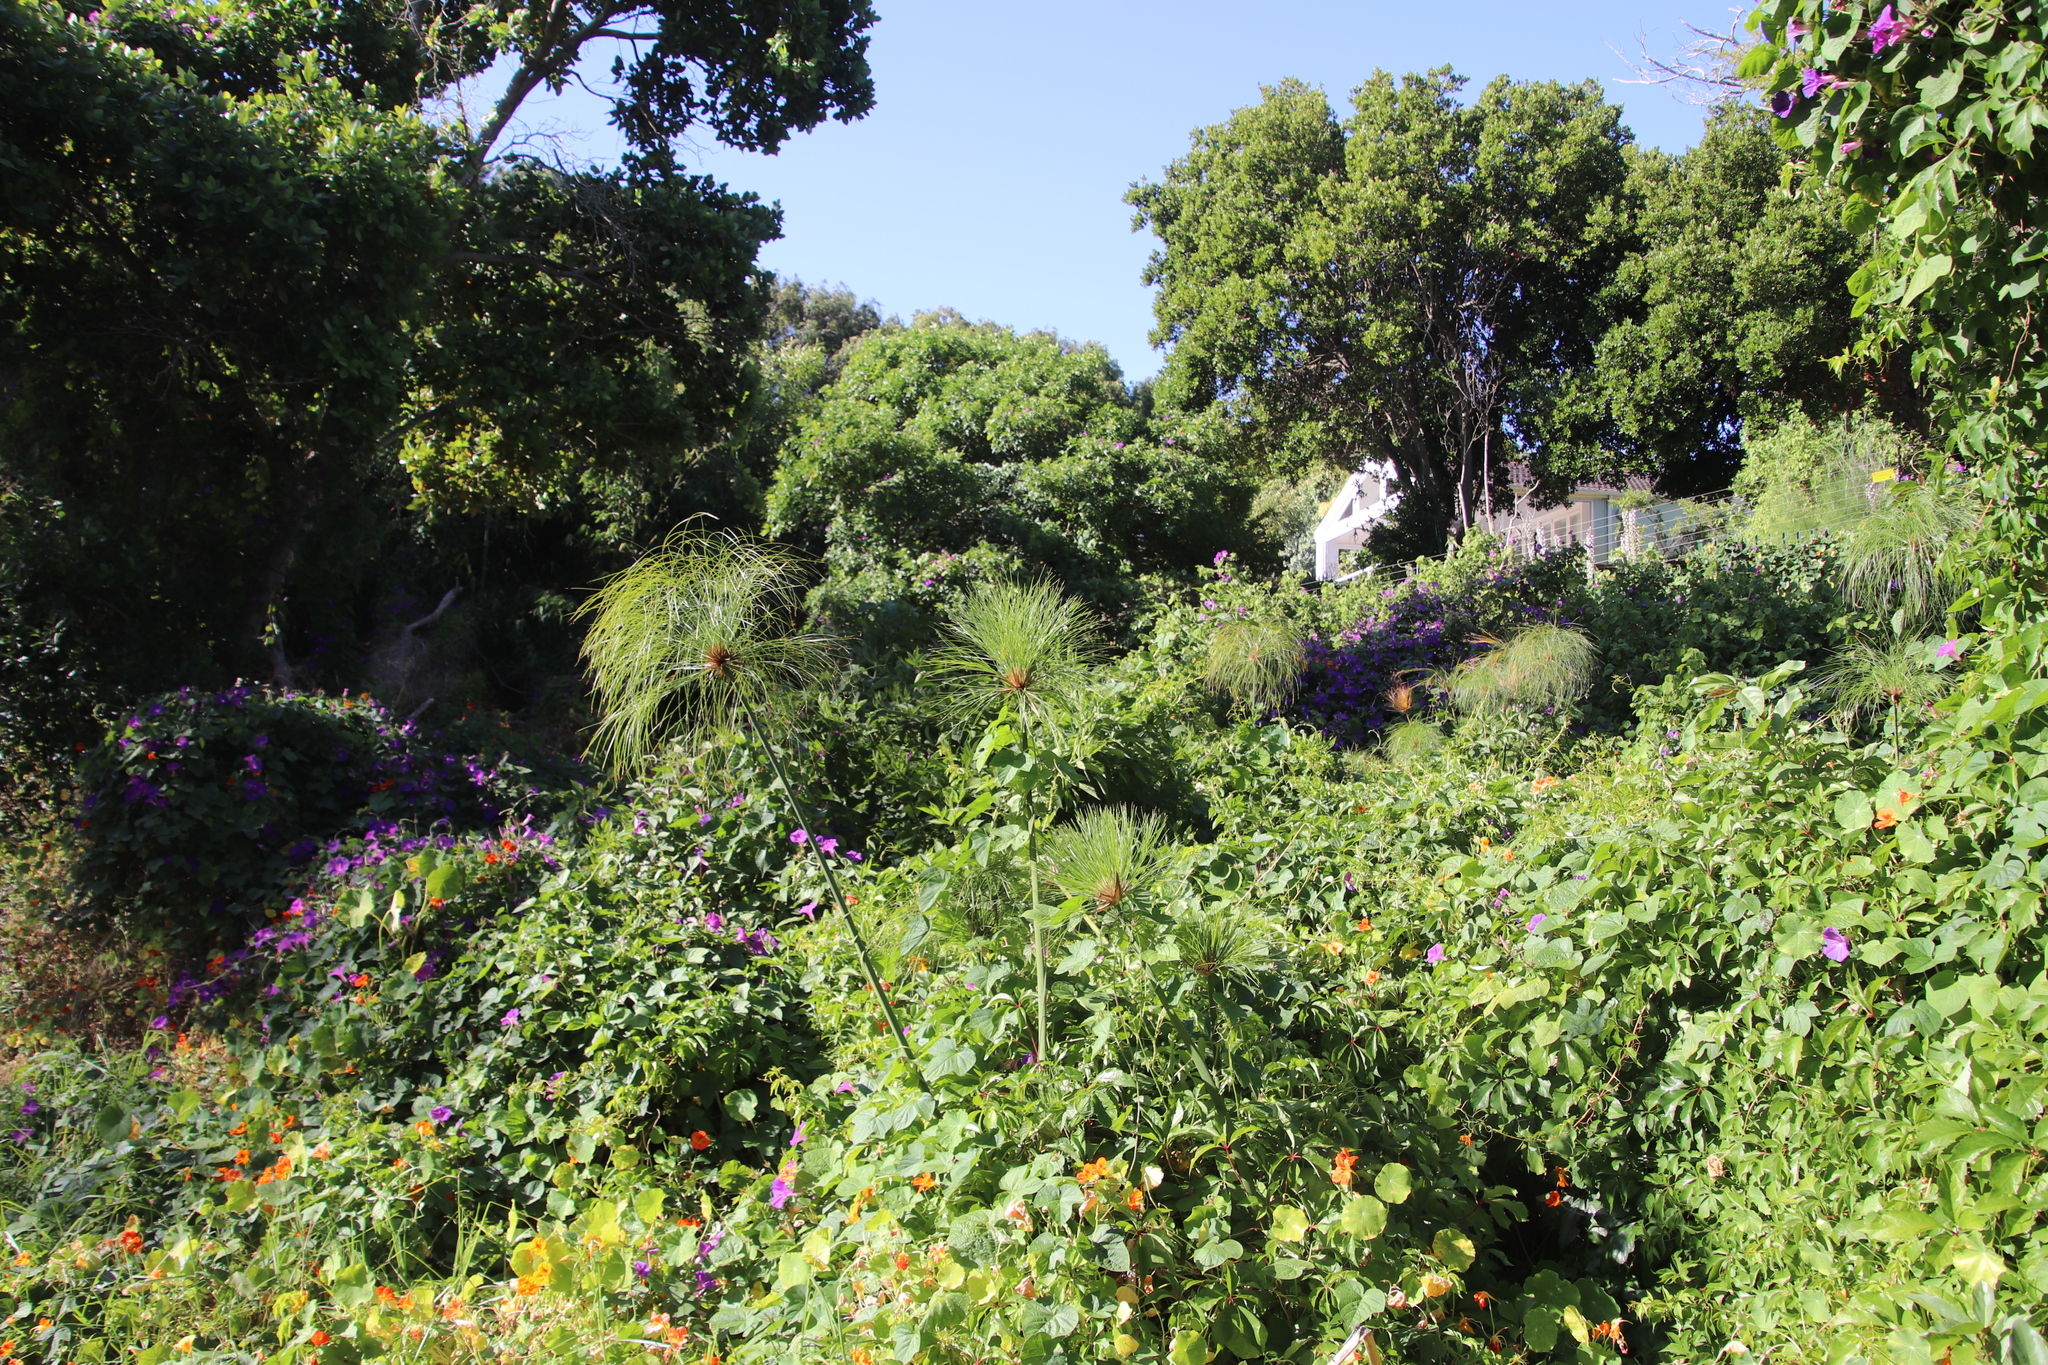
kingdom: Plantae
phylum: Tracheophyta
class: Liliopsida
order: Poales
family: Cyperaceae
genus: Cyperus
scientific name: Cyperus papyrus
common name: Papyrus
